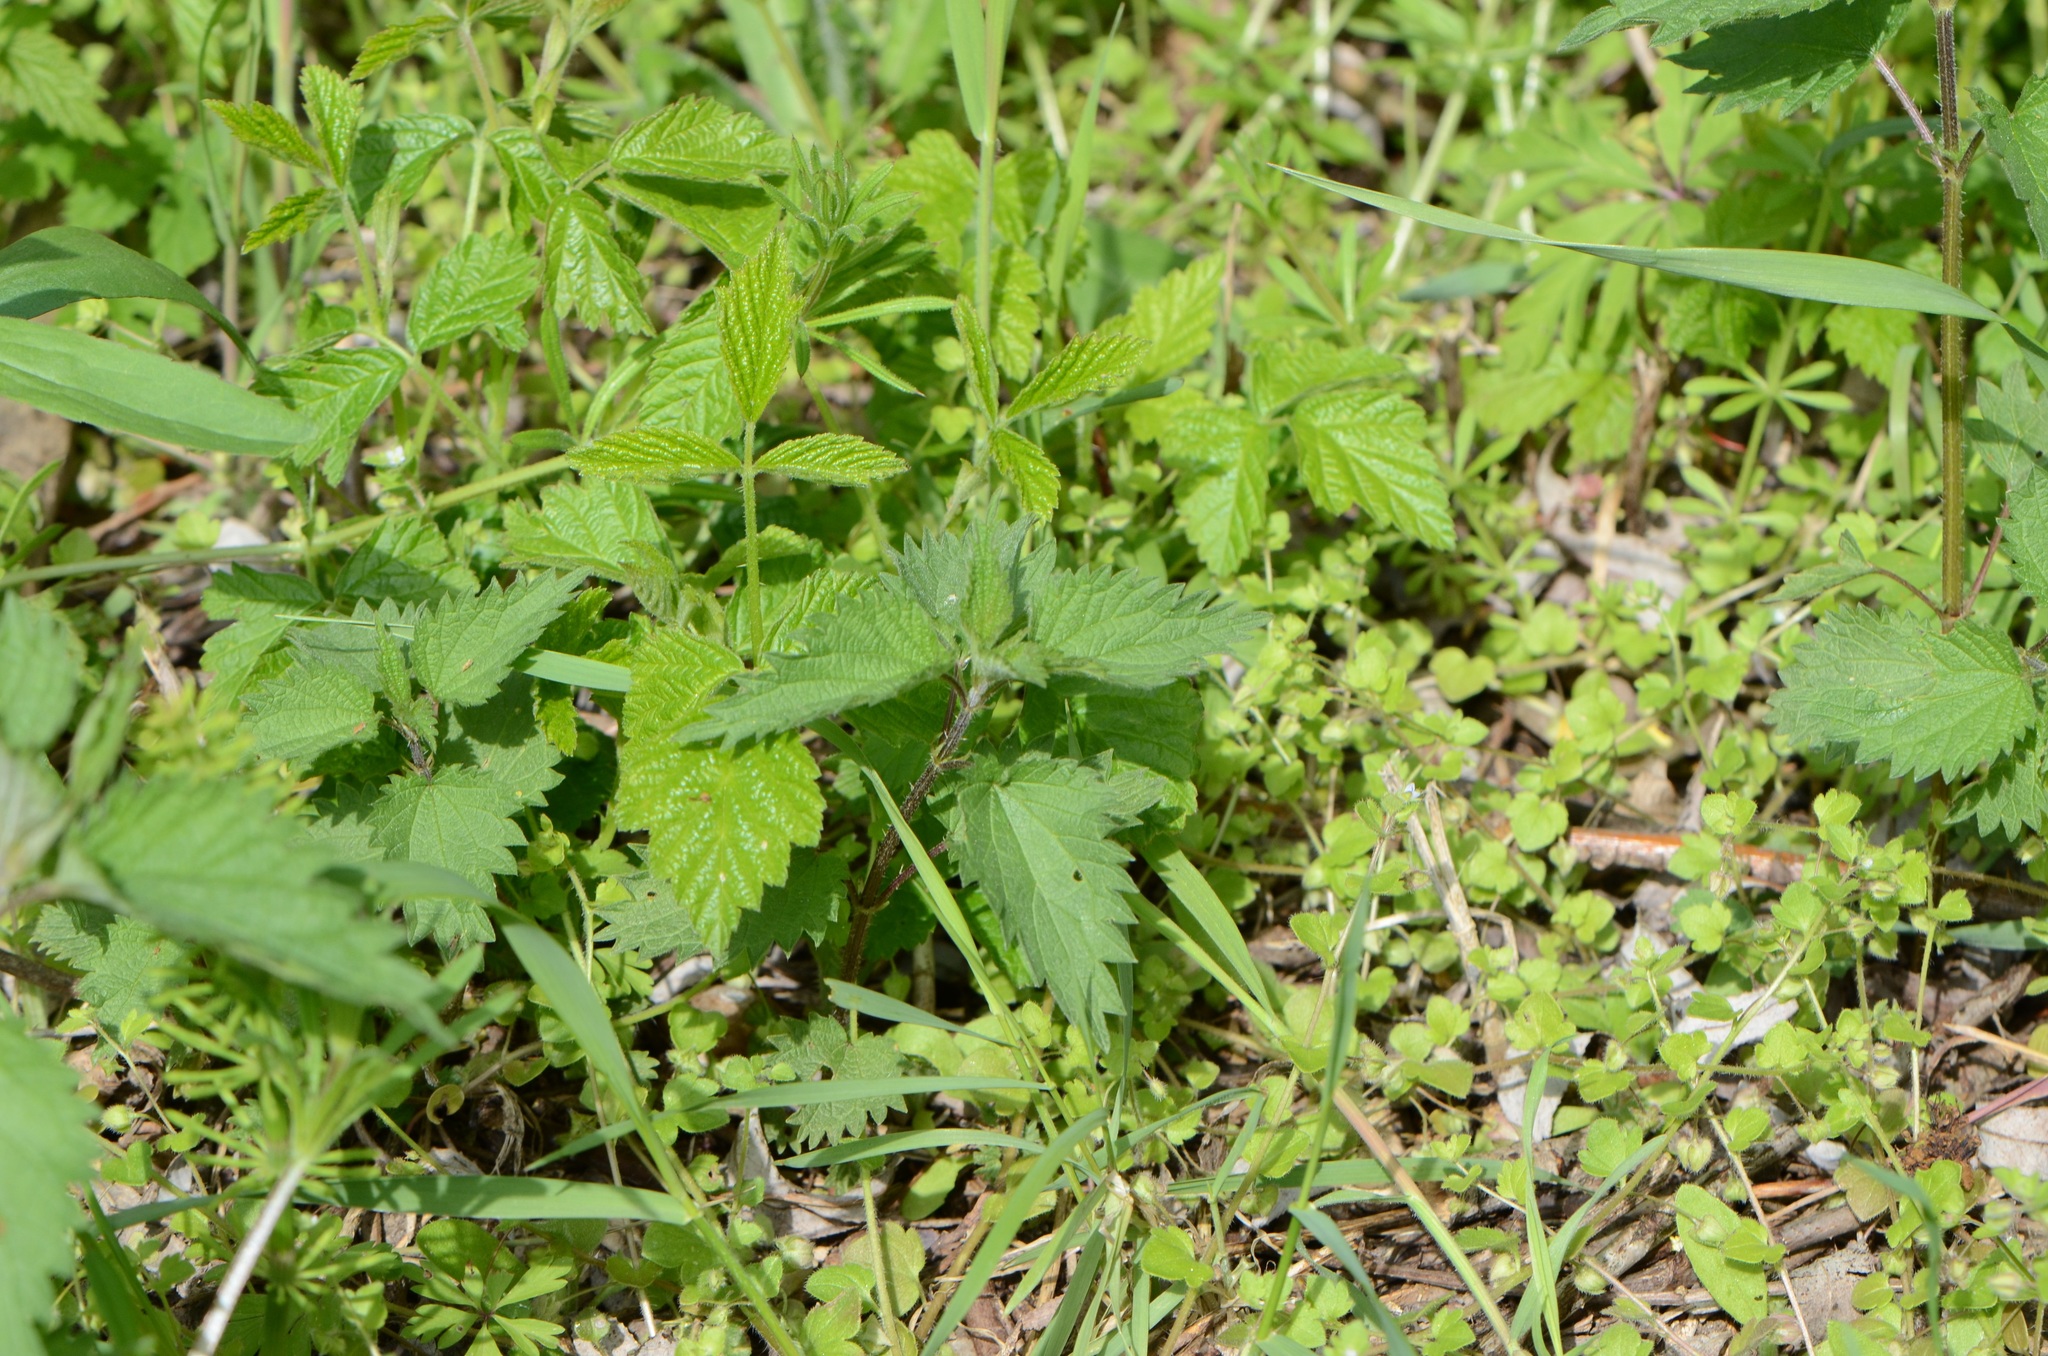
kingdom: Plantae
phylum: Tracheophyta
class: Magnoliopsida
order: Rosales
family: Urticaceae
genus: Urtica
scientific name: Urtica dioica
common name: Common nettle
